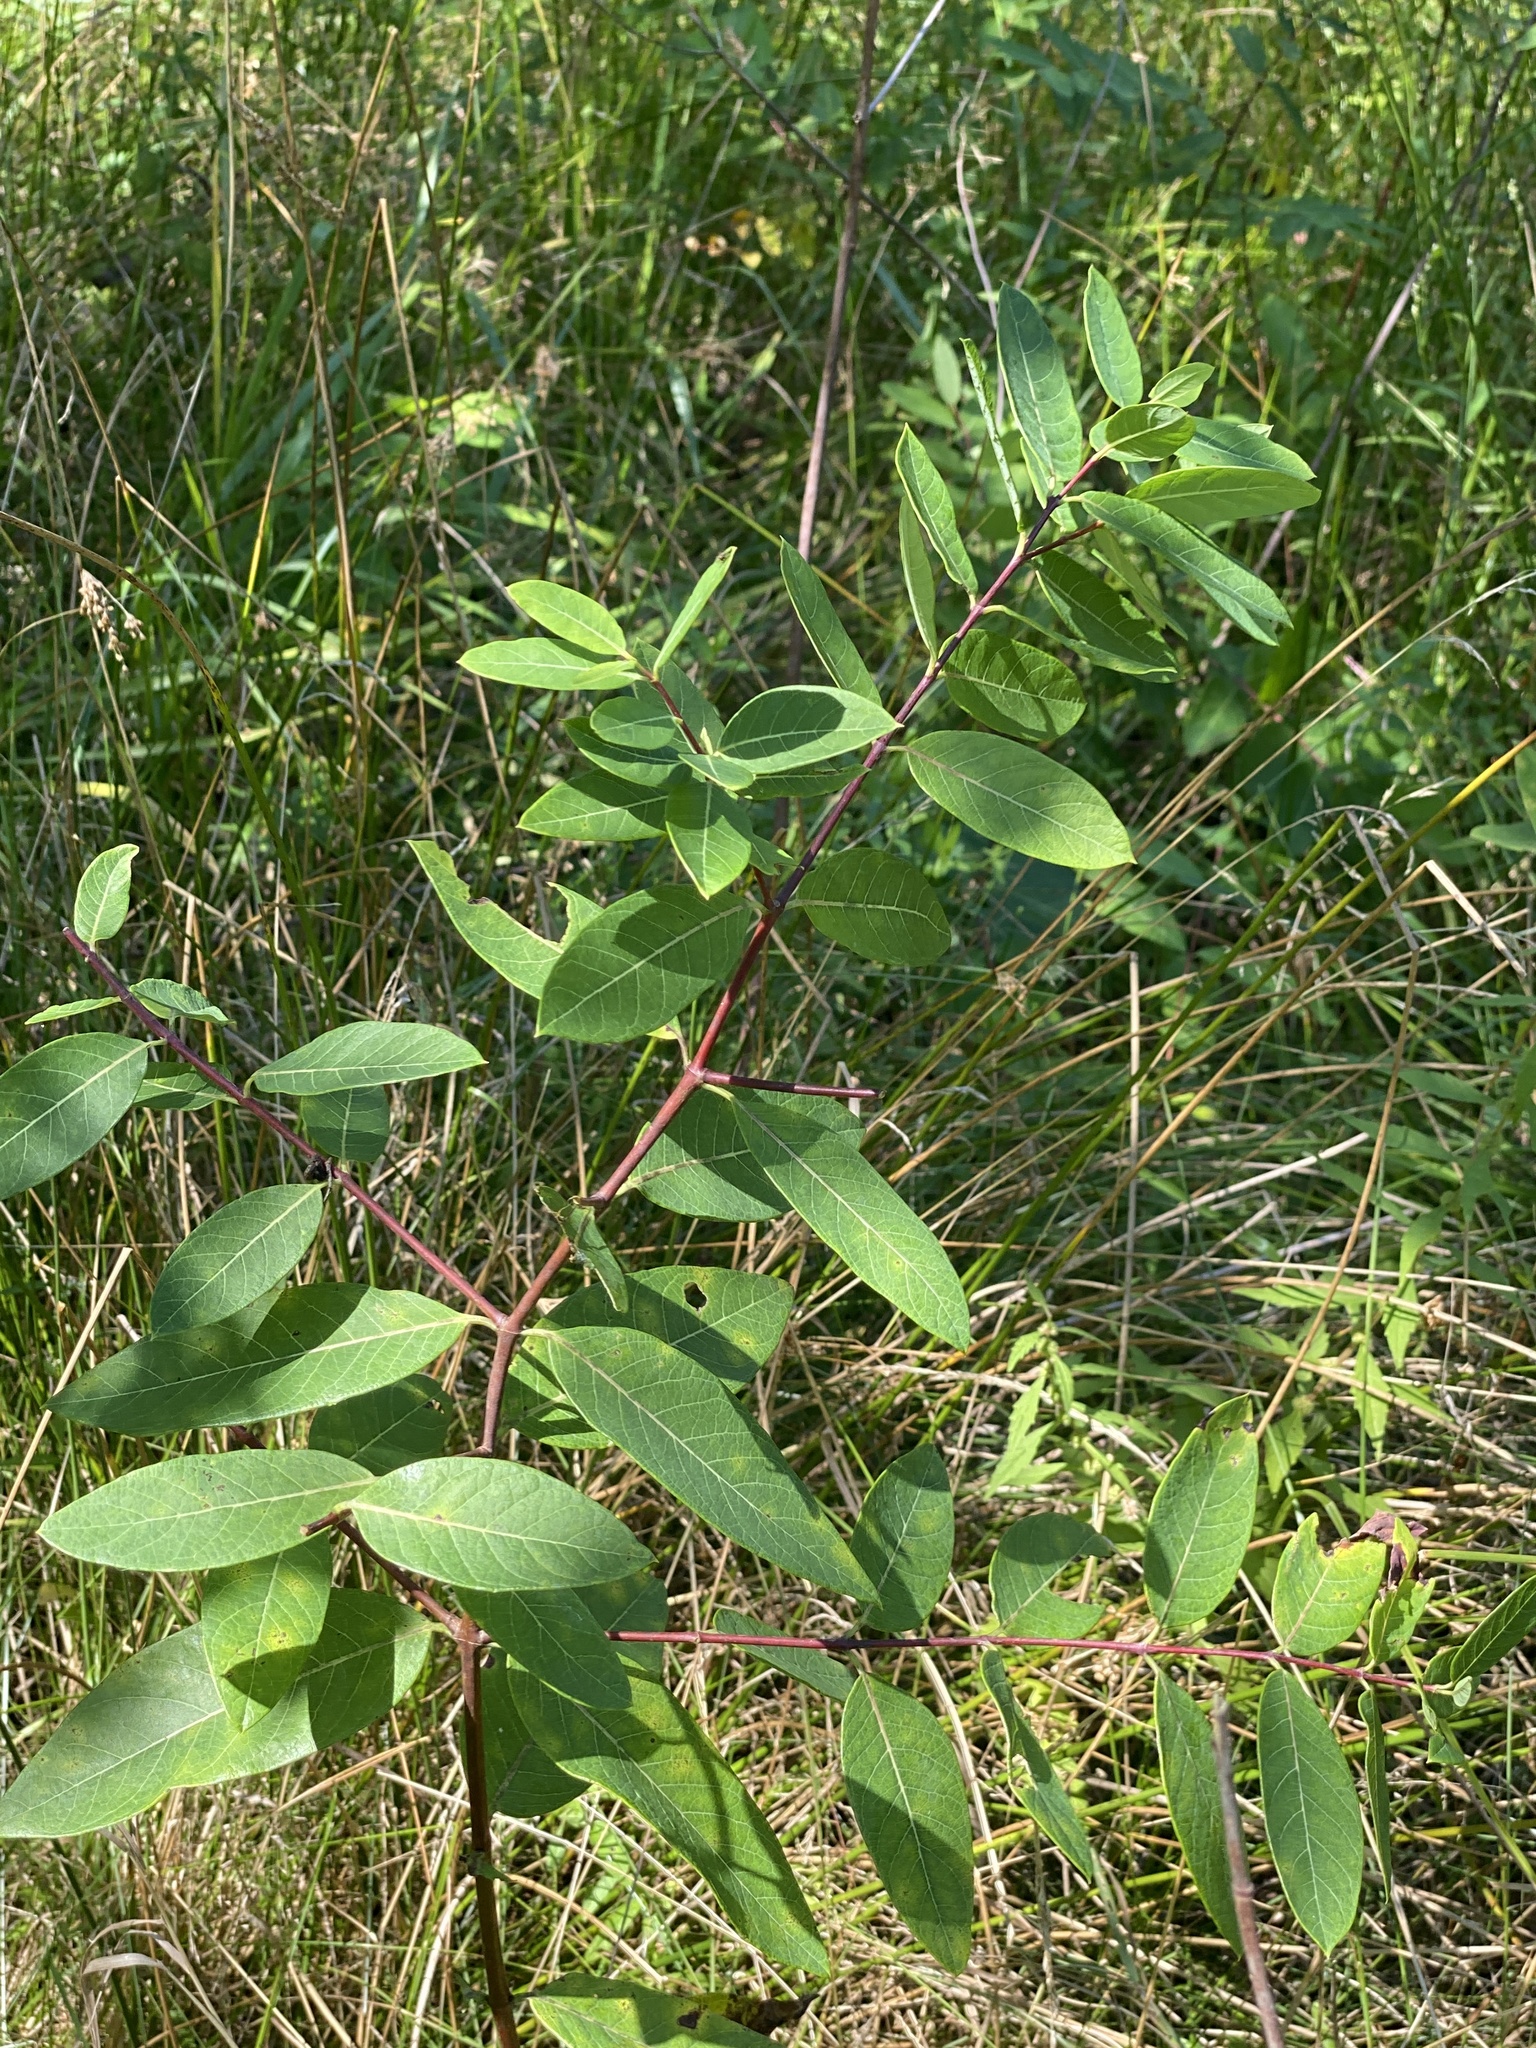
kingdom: Plantae
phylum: Tracheophyta
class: Magnoliopsida
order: Gentianales
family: Apocynaceae
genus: Apocynum
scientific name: Apocynum cannabinum
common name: Hemp dogbane
